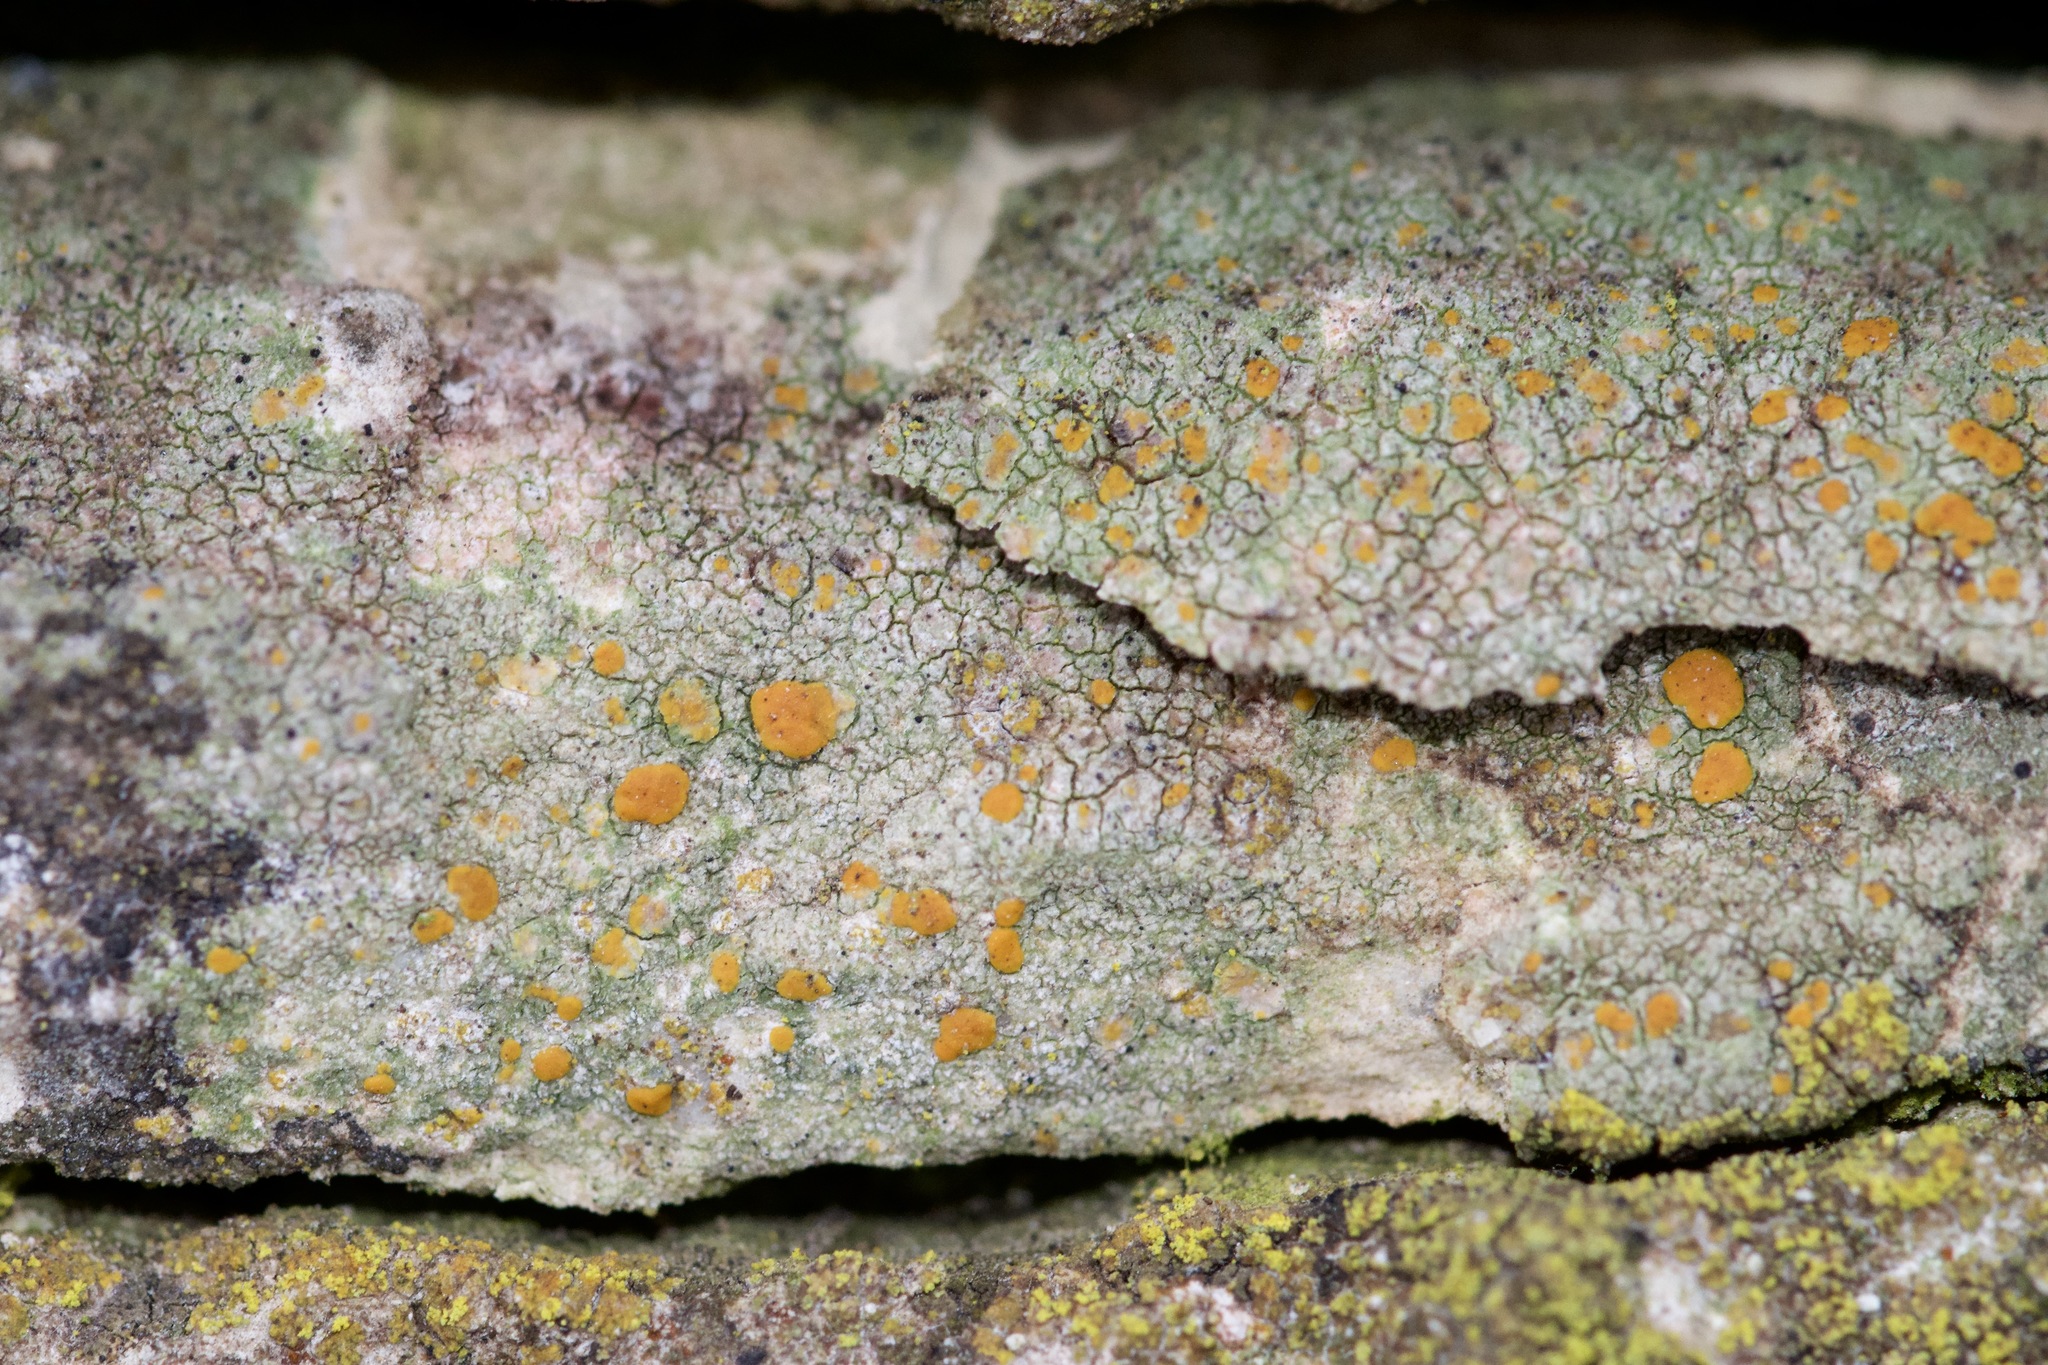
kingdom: Fungi
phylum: Ascomycota
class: Lecanoromycetes
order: Lecanorales
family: Psoraceae
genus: Protoblastenia
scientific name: Protoblastenia rupestris
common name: Chewing gum lichen
